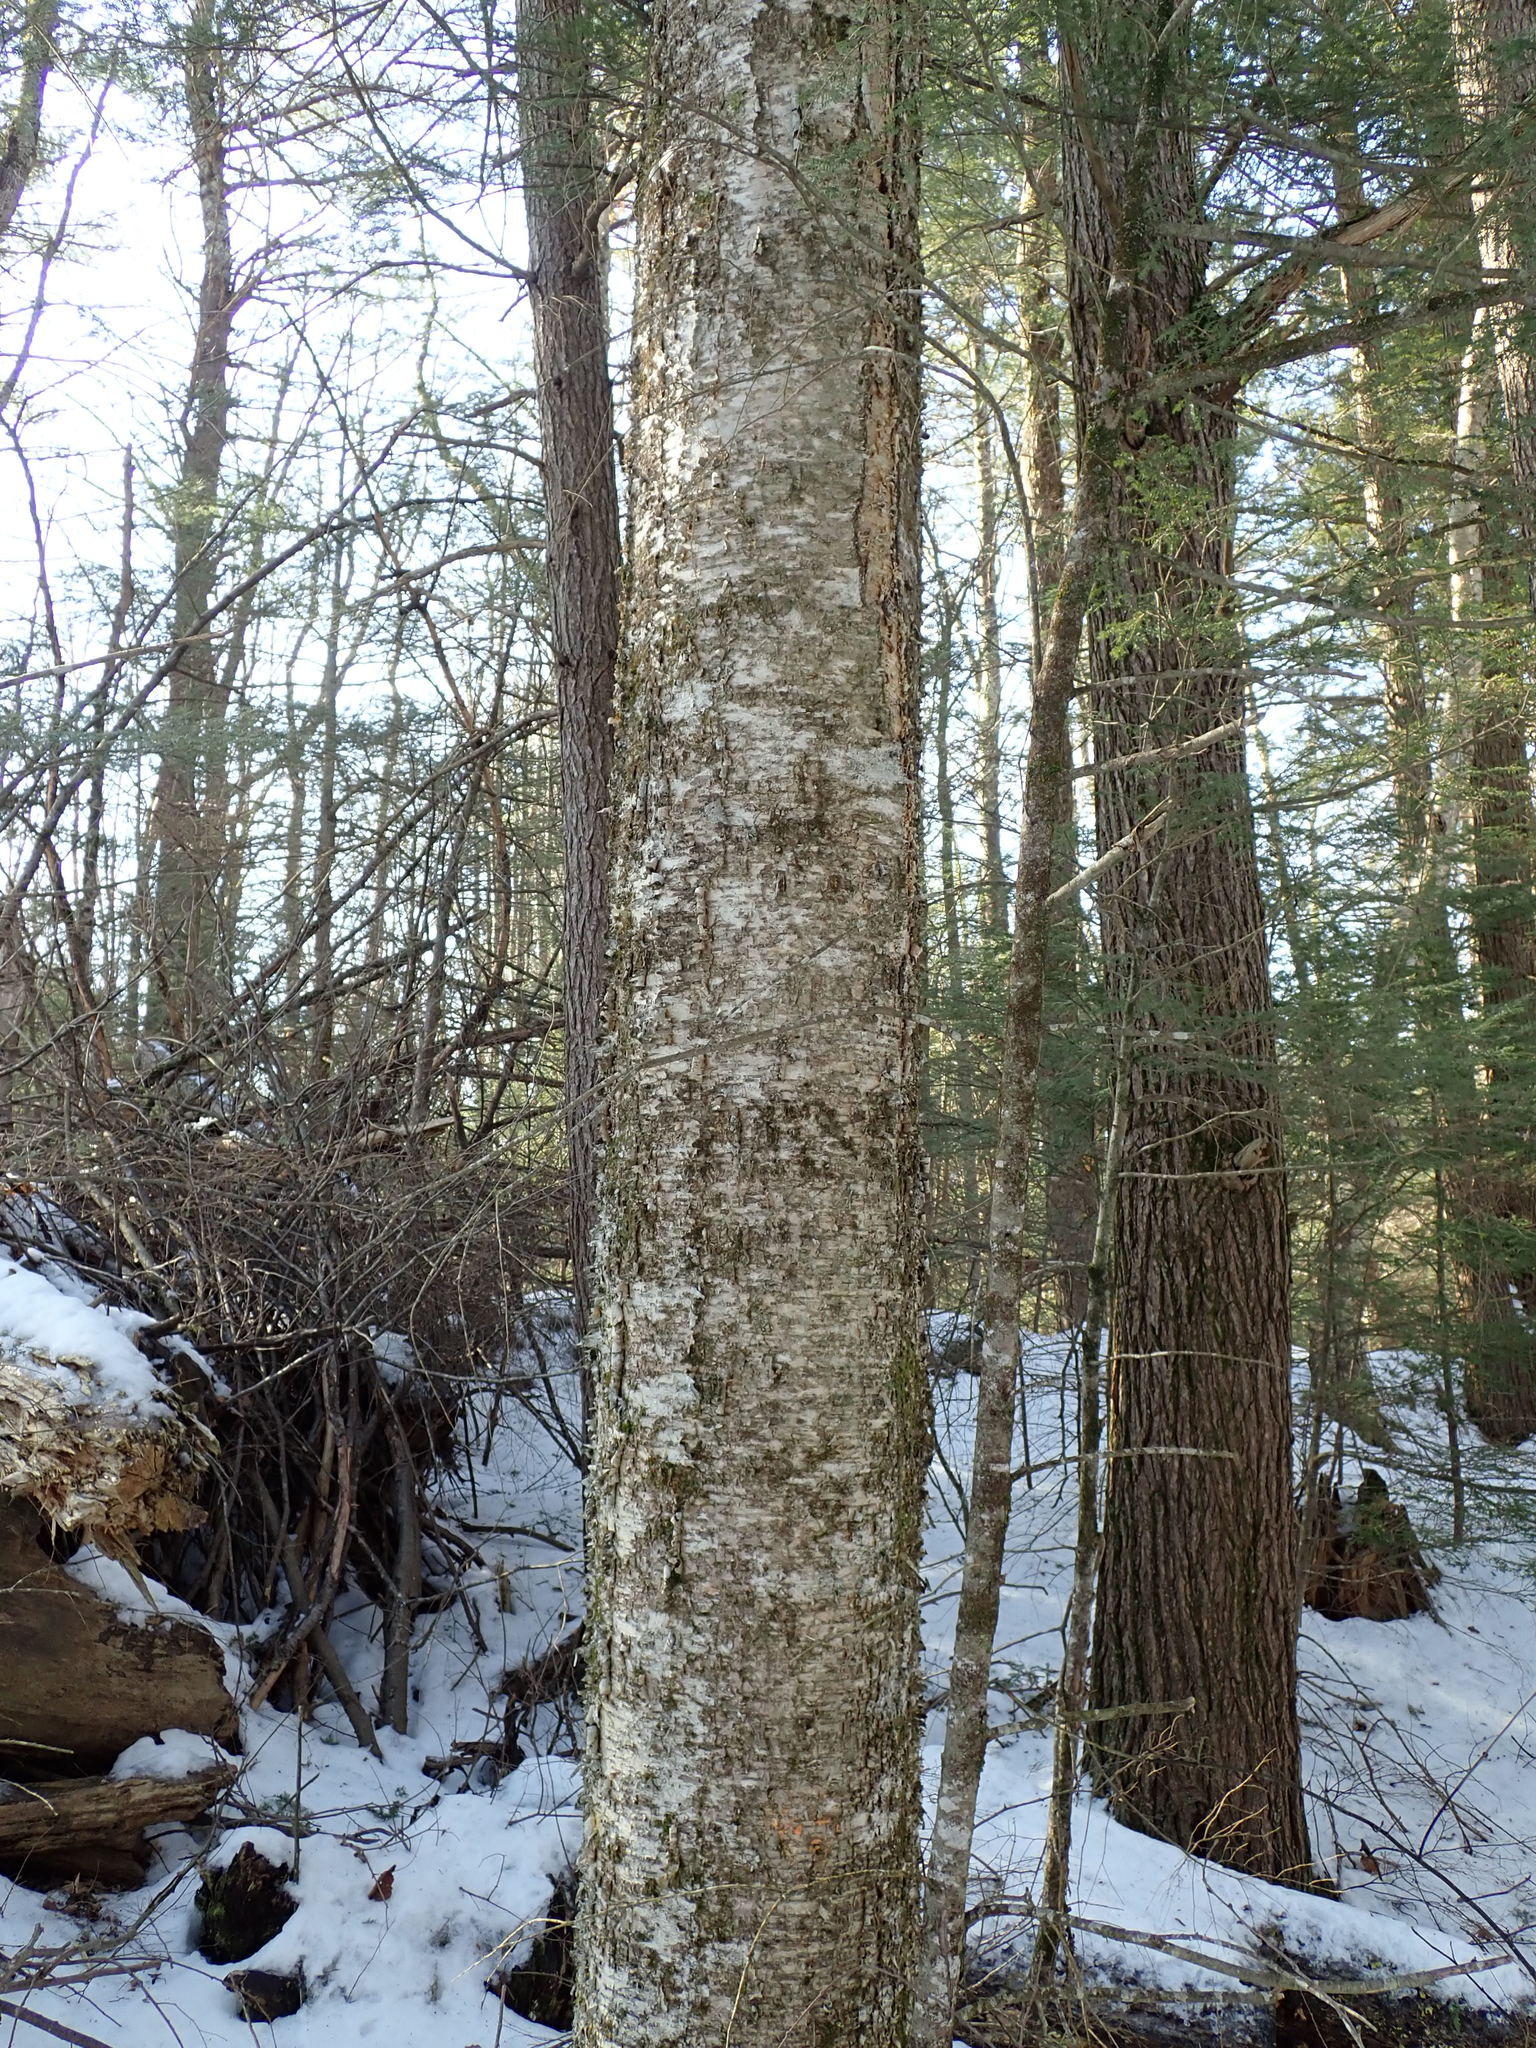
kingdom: Plantae
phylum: Tracheophyta
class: Magnoliopsida
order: Fagales
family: Betulaceae
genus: Betula
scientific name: Betula alleghaniensis
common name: Yellow birch
